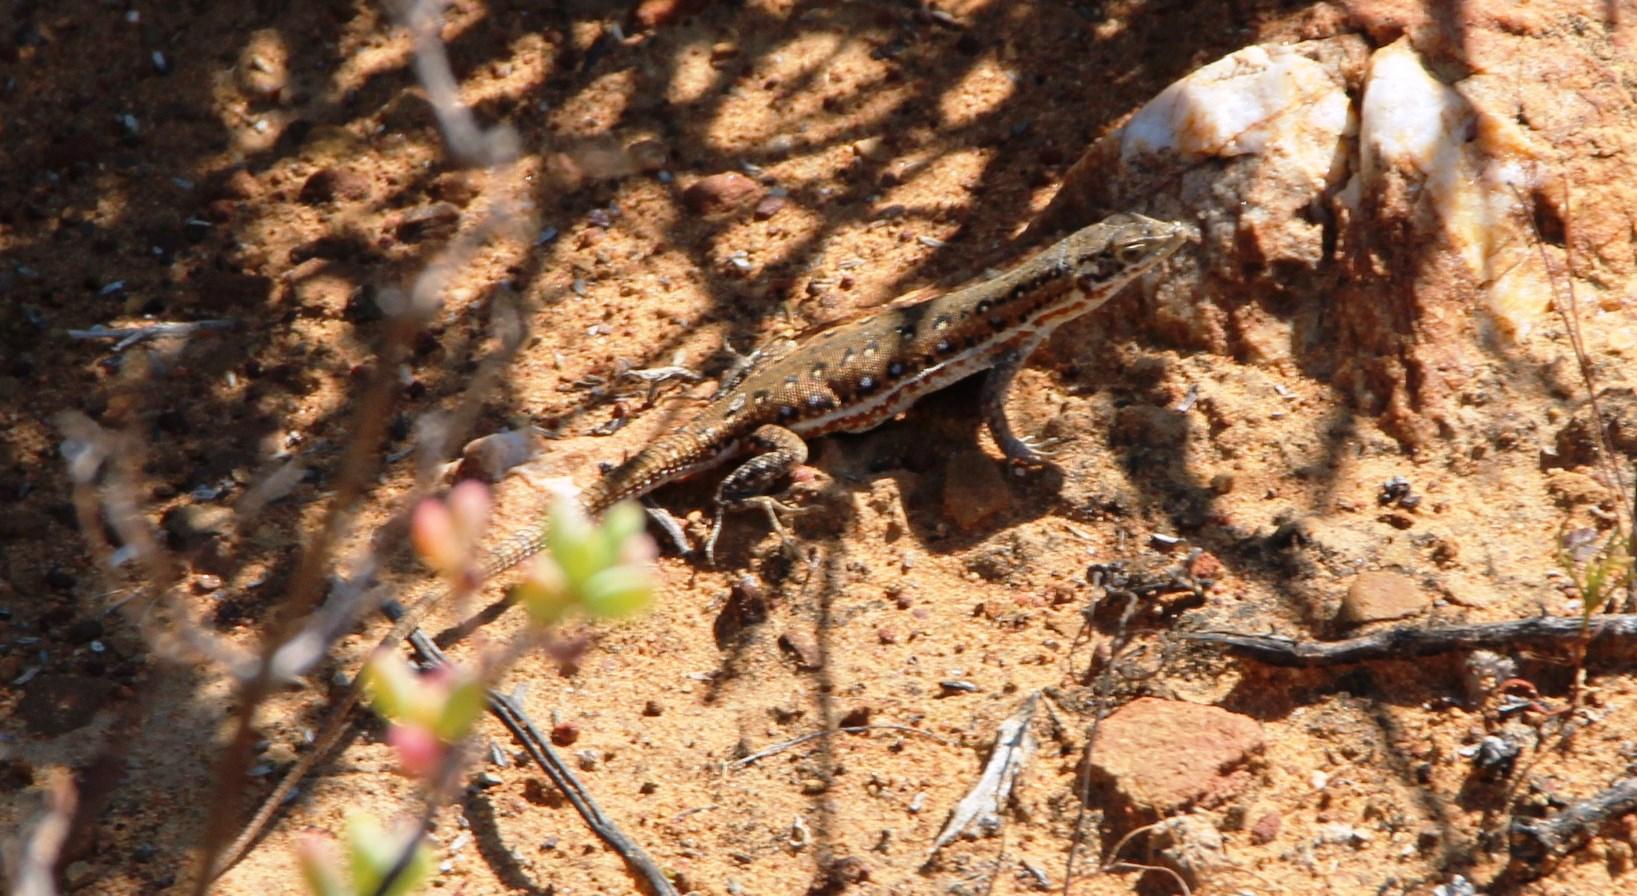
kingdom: Animalia
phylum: Chordata
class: Squamata
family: Lacertidae
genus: Pedioplanis
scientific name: Pedioplanis lineoocellata
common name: Spotted sand lizard
